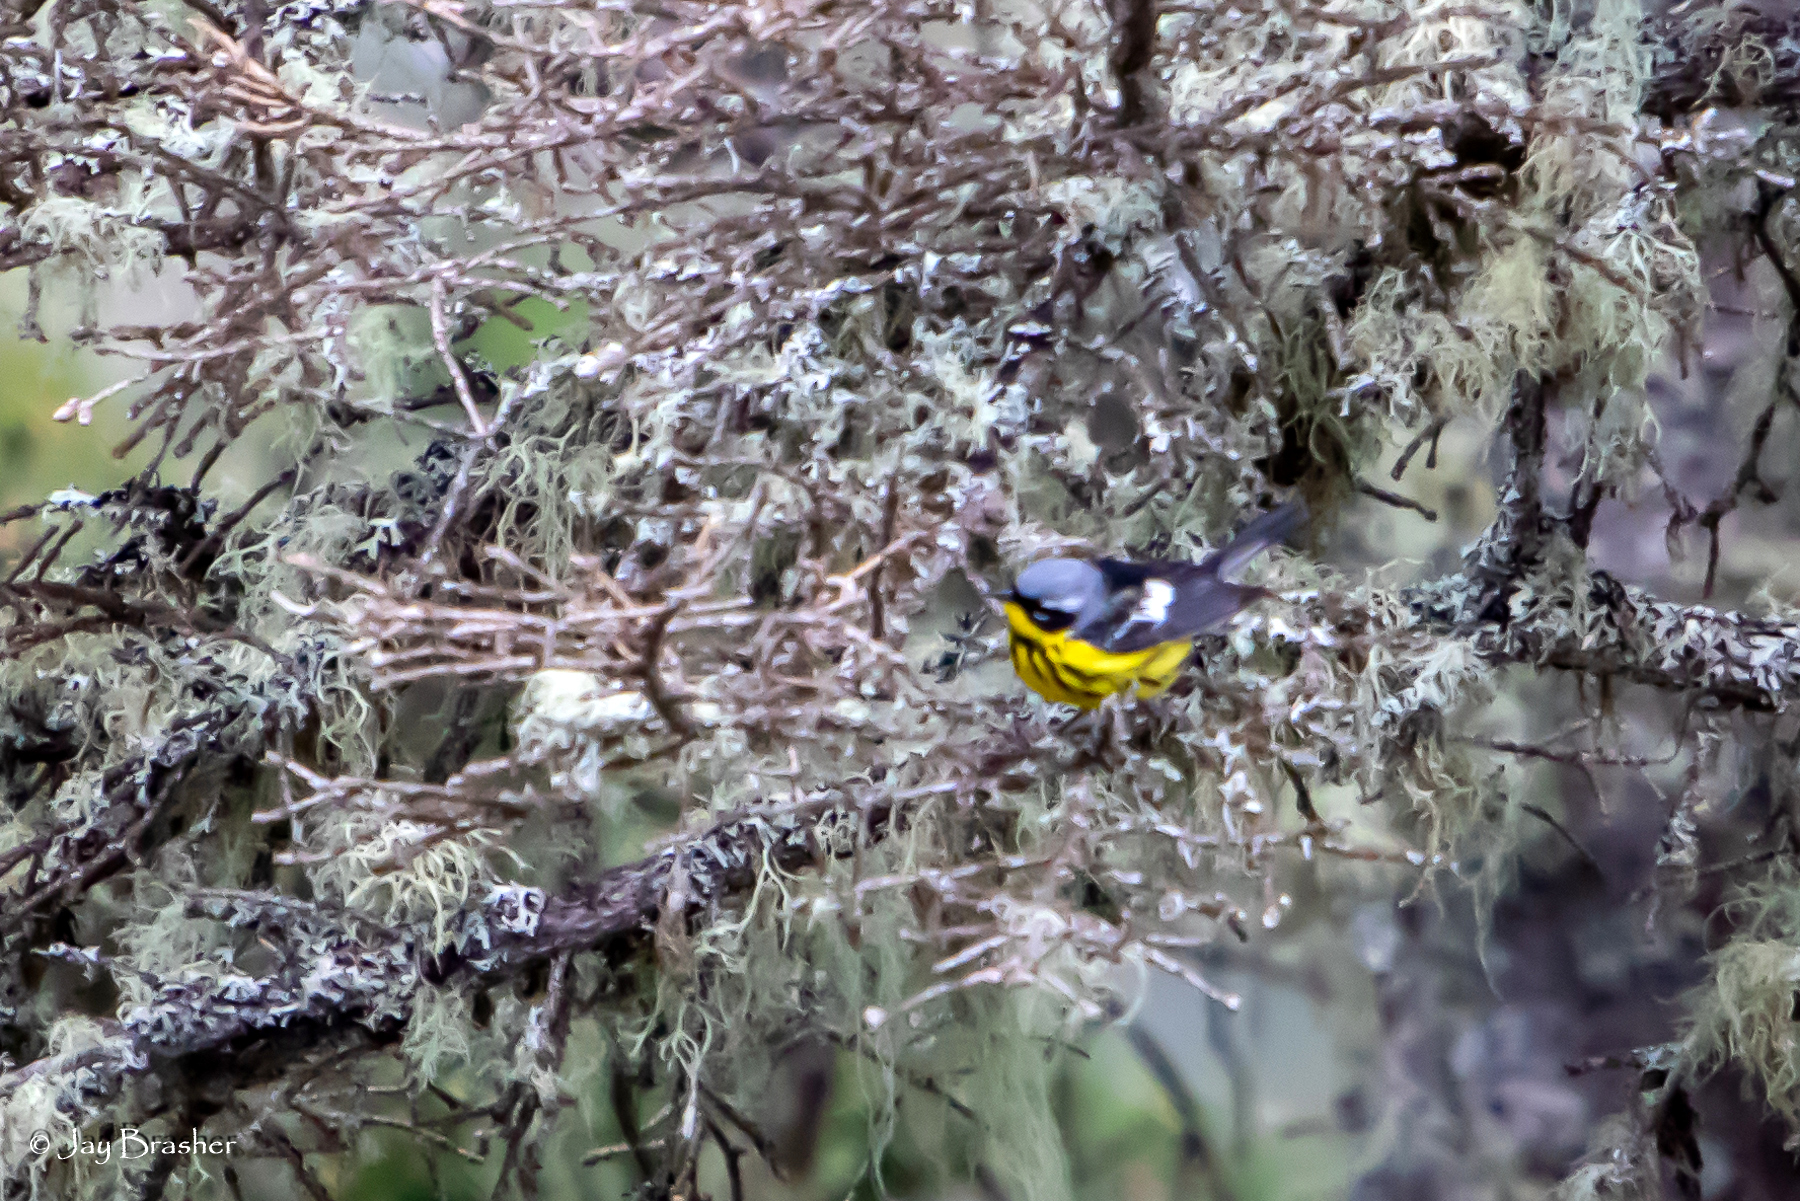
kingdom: Animalia
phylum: Chordata
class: Aves
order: Passeriformes
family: Parulidae
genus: Setophaga
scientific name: Setophaga magnolia
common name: Magnolia warbler
